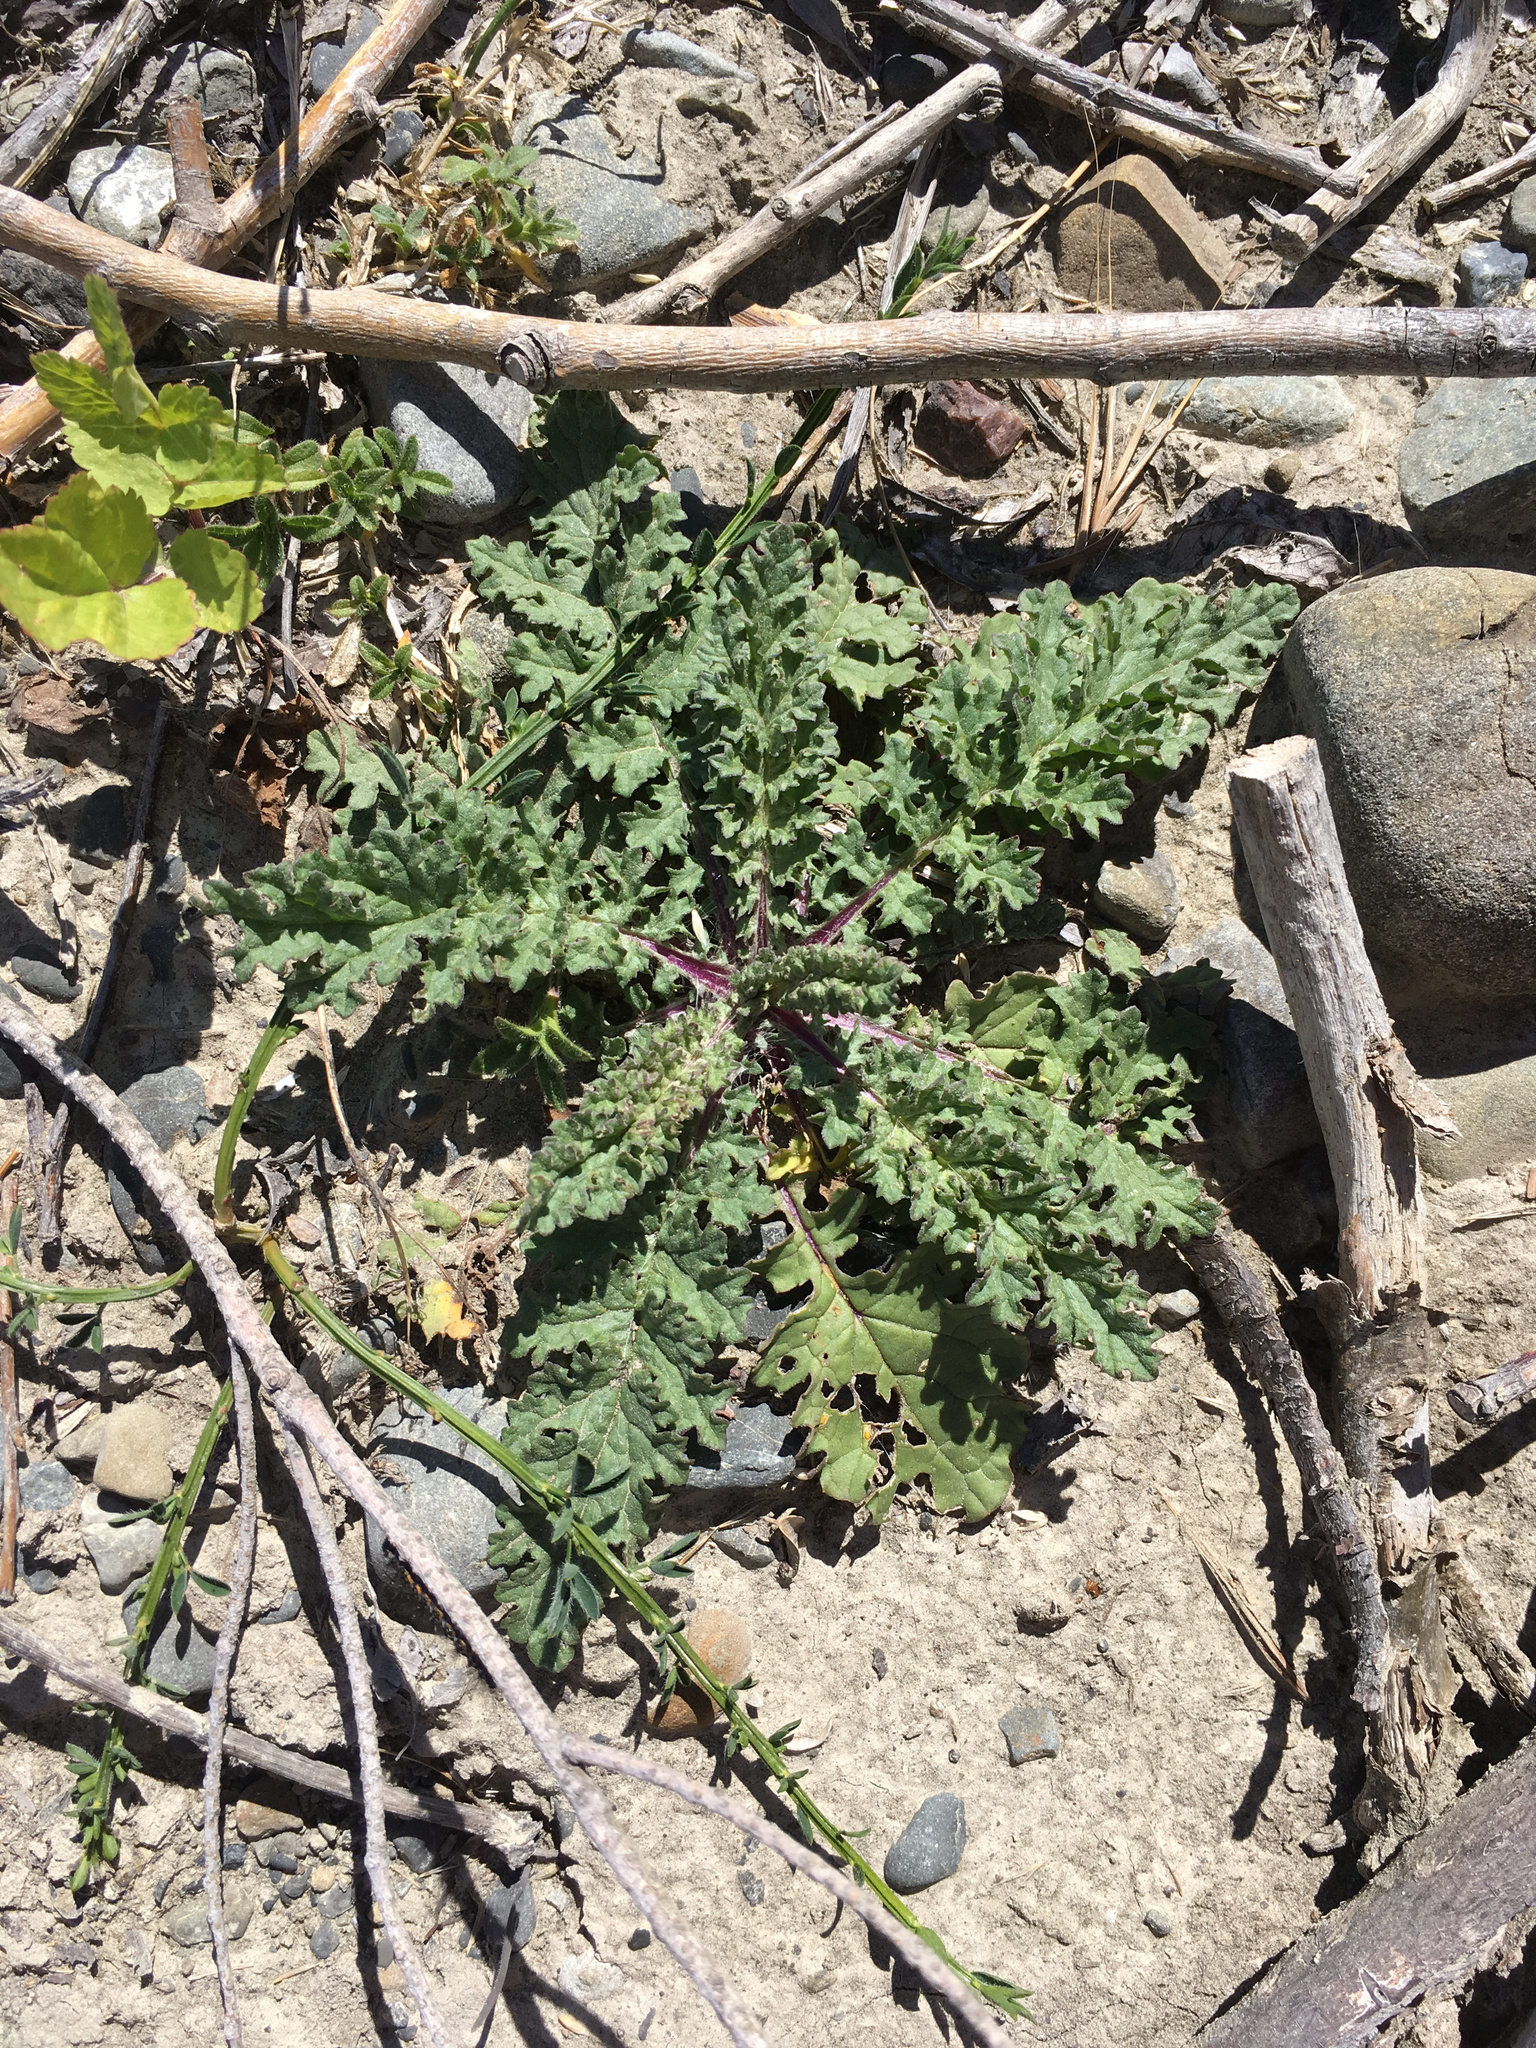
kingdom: Plantae
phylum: Tracheophyta
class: Magnoliopsida
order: Asterales
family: Asteraceae
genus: Jacobaea
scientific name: Jacobaea vulgaris
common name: Stinking willie
